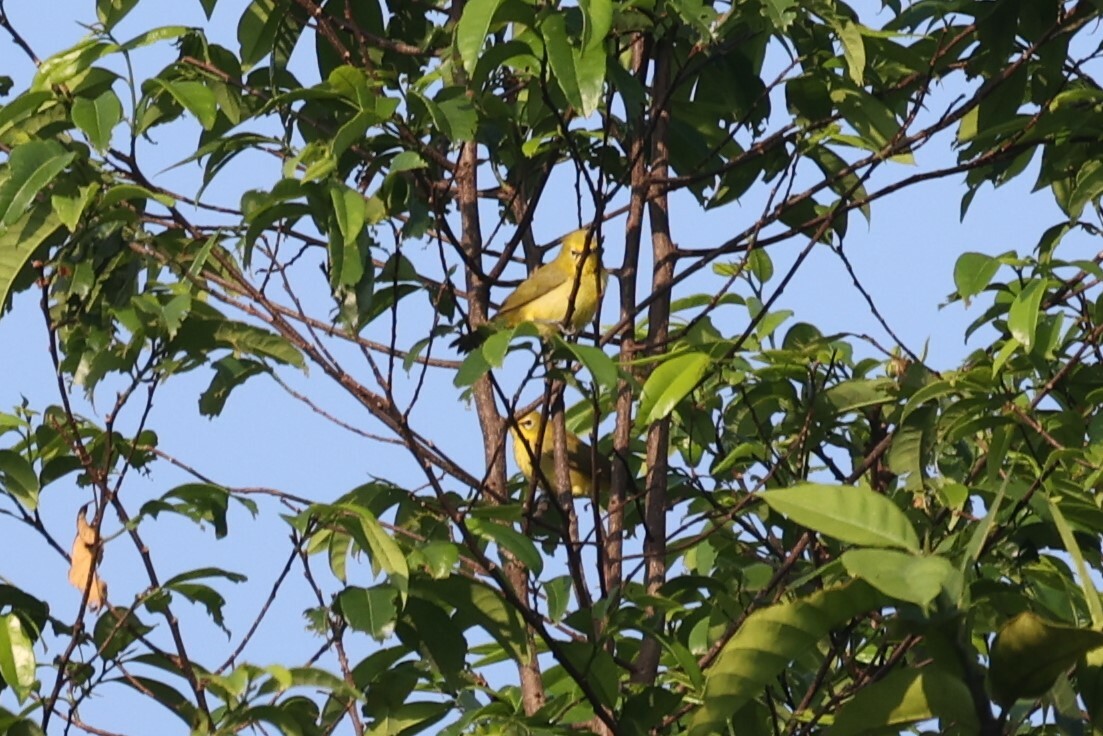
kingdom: Animalia
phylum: Chordata
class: Aves
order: Passeriformes
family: Zosteropidae
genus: Zosterops
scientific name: Zosterops senegalensis
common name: African yellow white-eye
